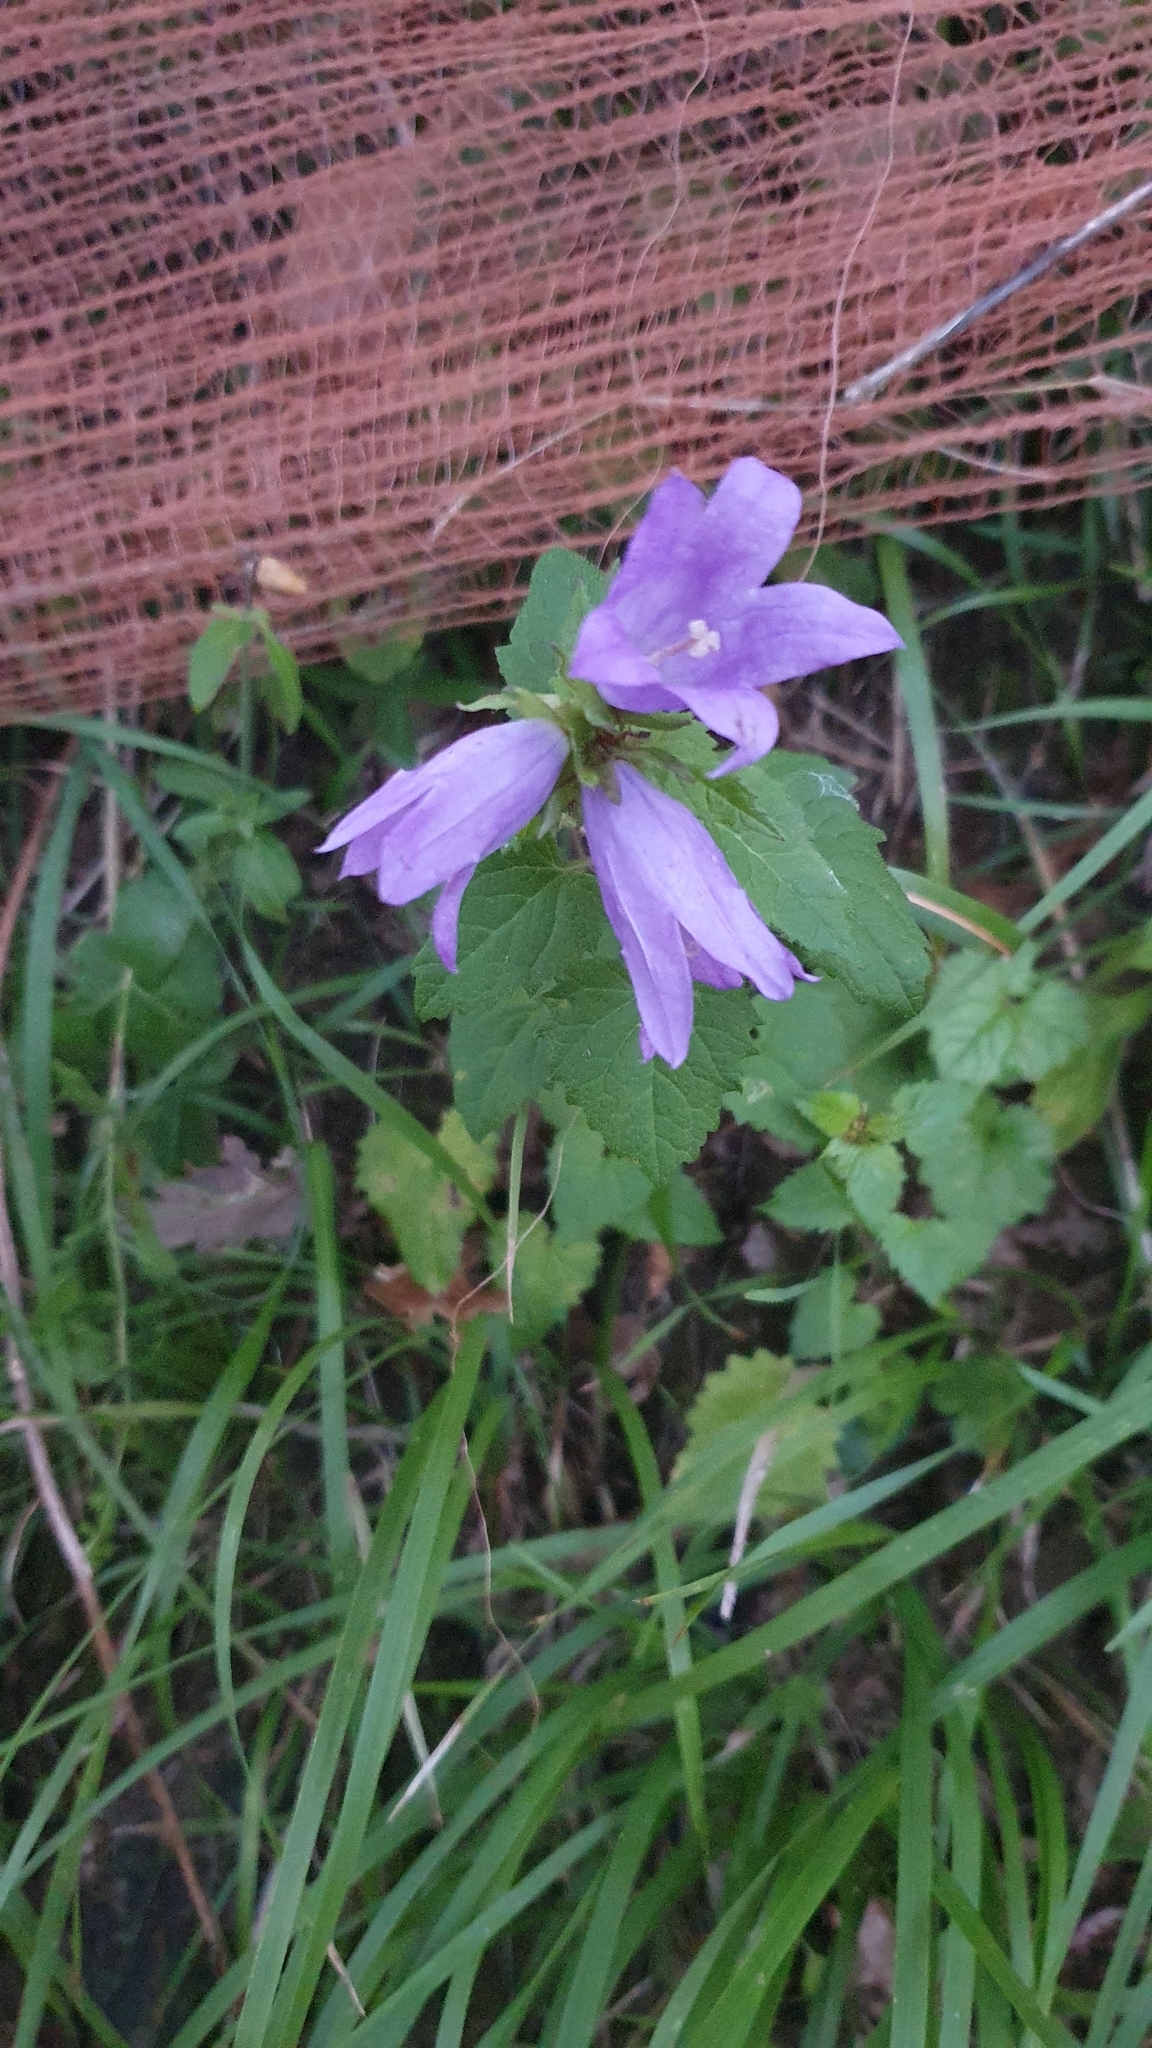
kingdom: Plantae
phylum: Tracheophyta
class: Magnoliopsida
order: Asterales
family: Campanulaceae
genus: Campanula
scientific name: Campanula trachelium
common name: Nettle-leaved bellflower
